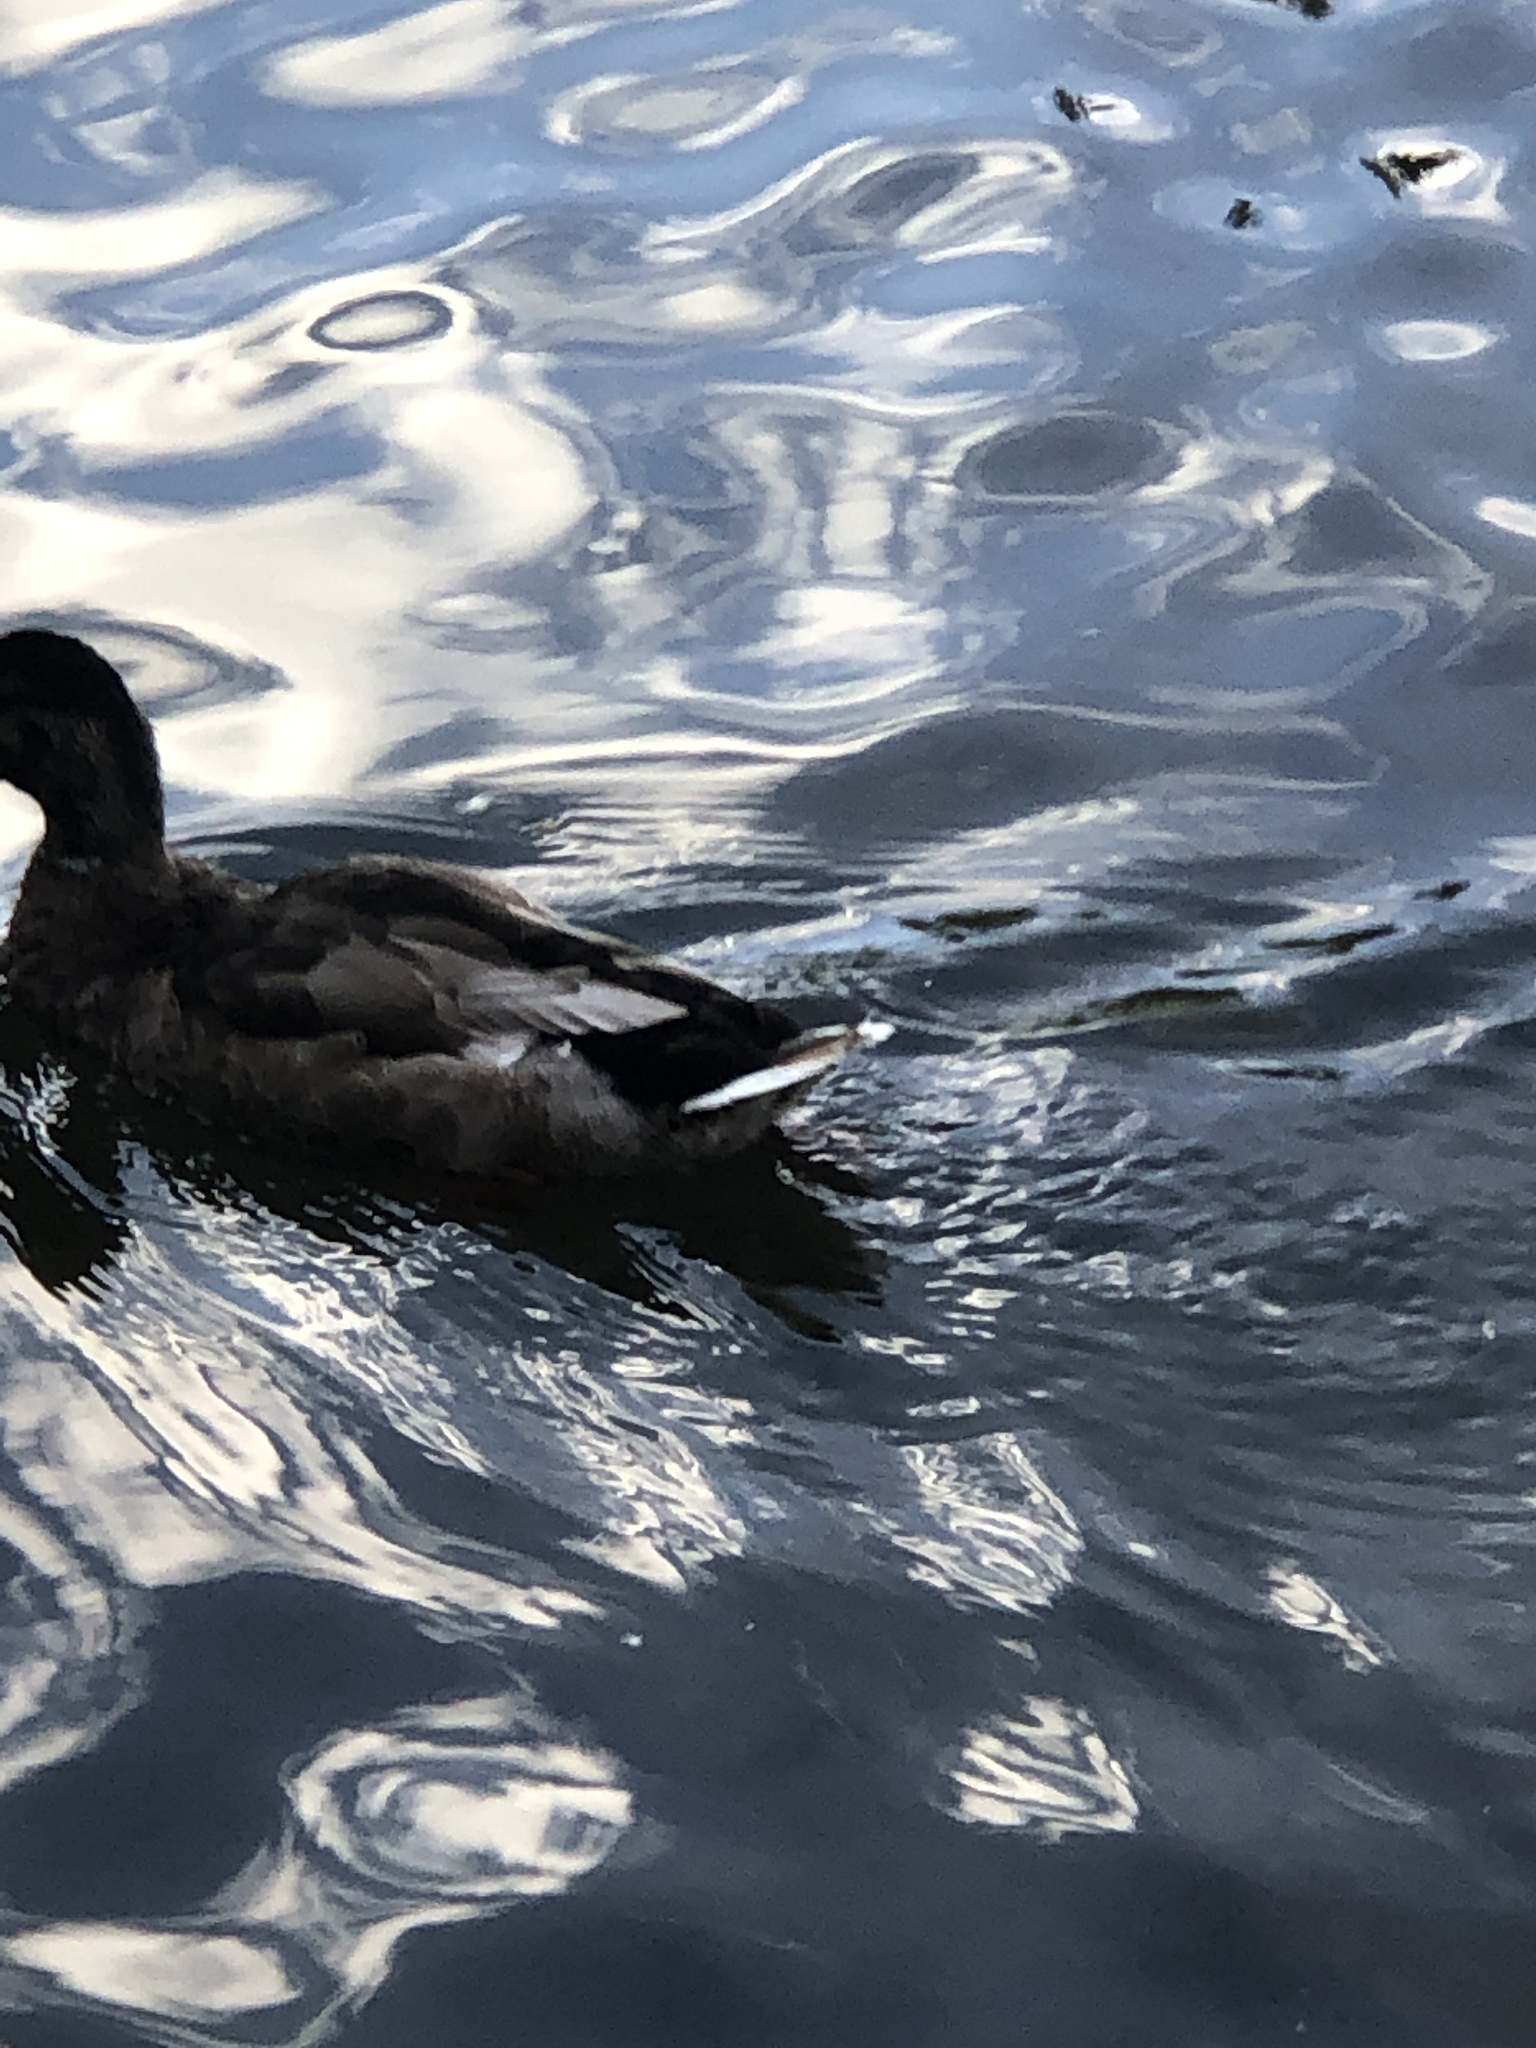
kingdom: Animalia
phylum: Chordata
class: Aves
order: Anseriformes
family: Anatidae
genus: Anas
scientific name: Anas platyrhynchos
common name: Mallard
